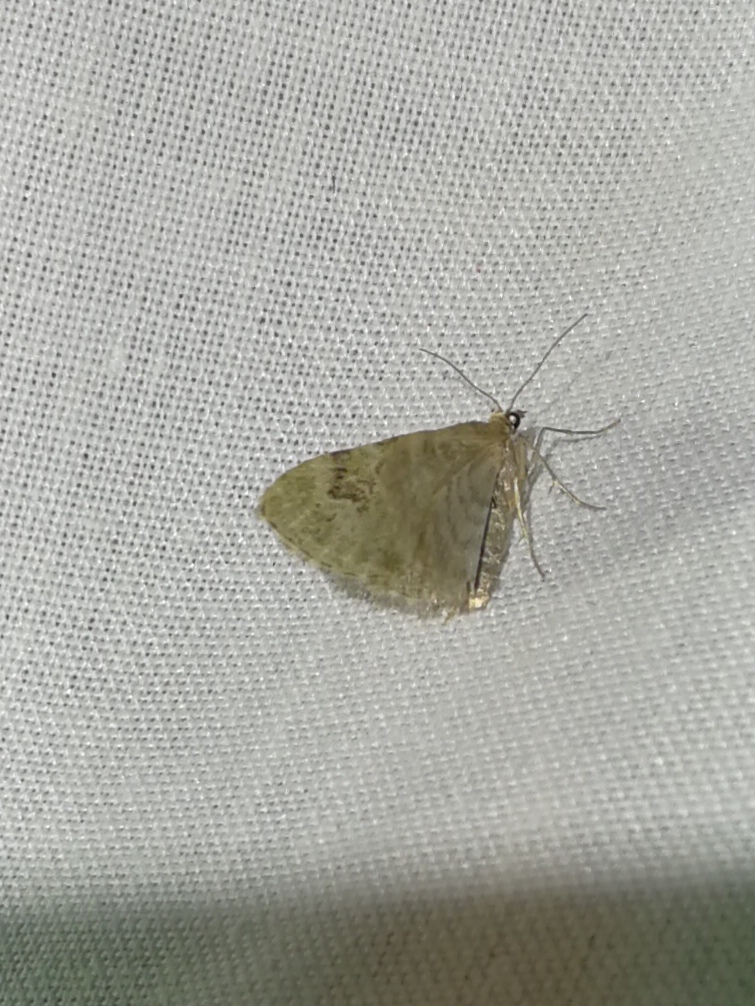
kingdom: Animalia
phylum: Arthropoda
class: Insecta
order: Lepidoptera
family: Geometridae
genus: Chloroclystis
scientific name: Chloroclystis v-ata
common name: V-pug
